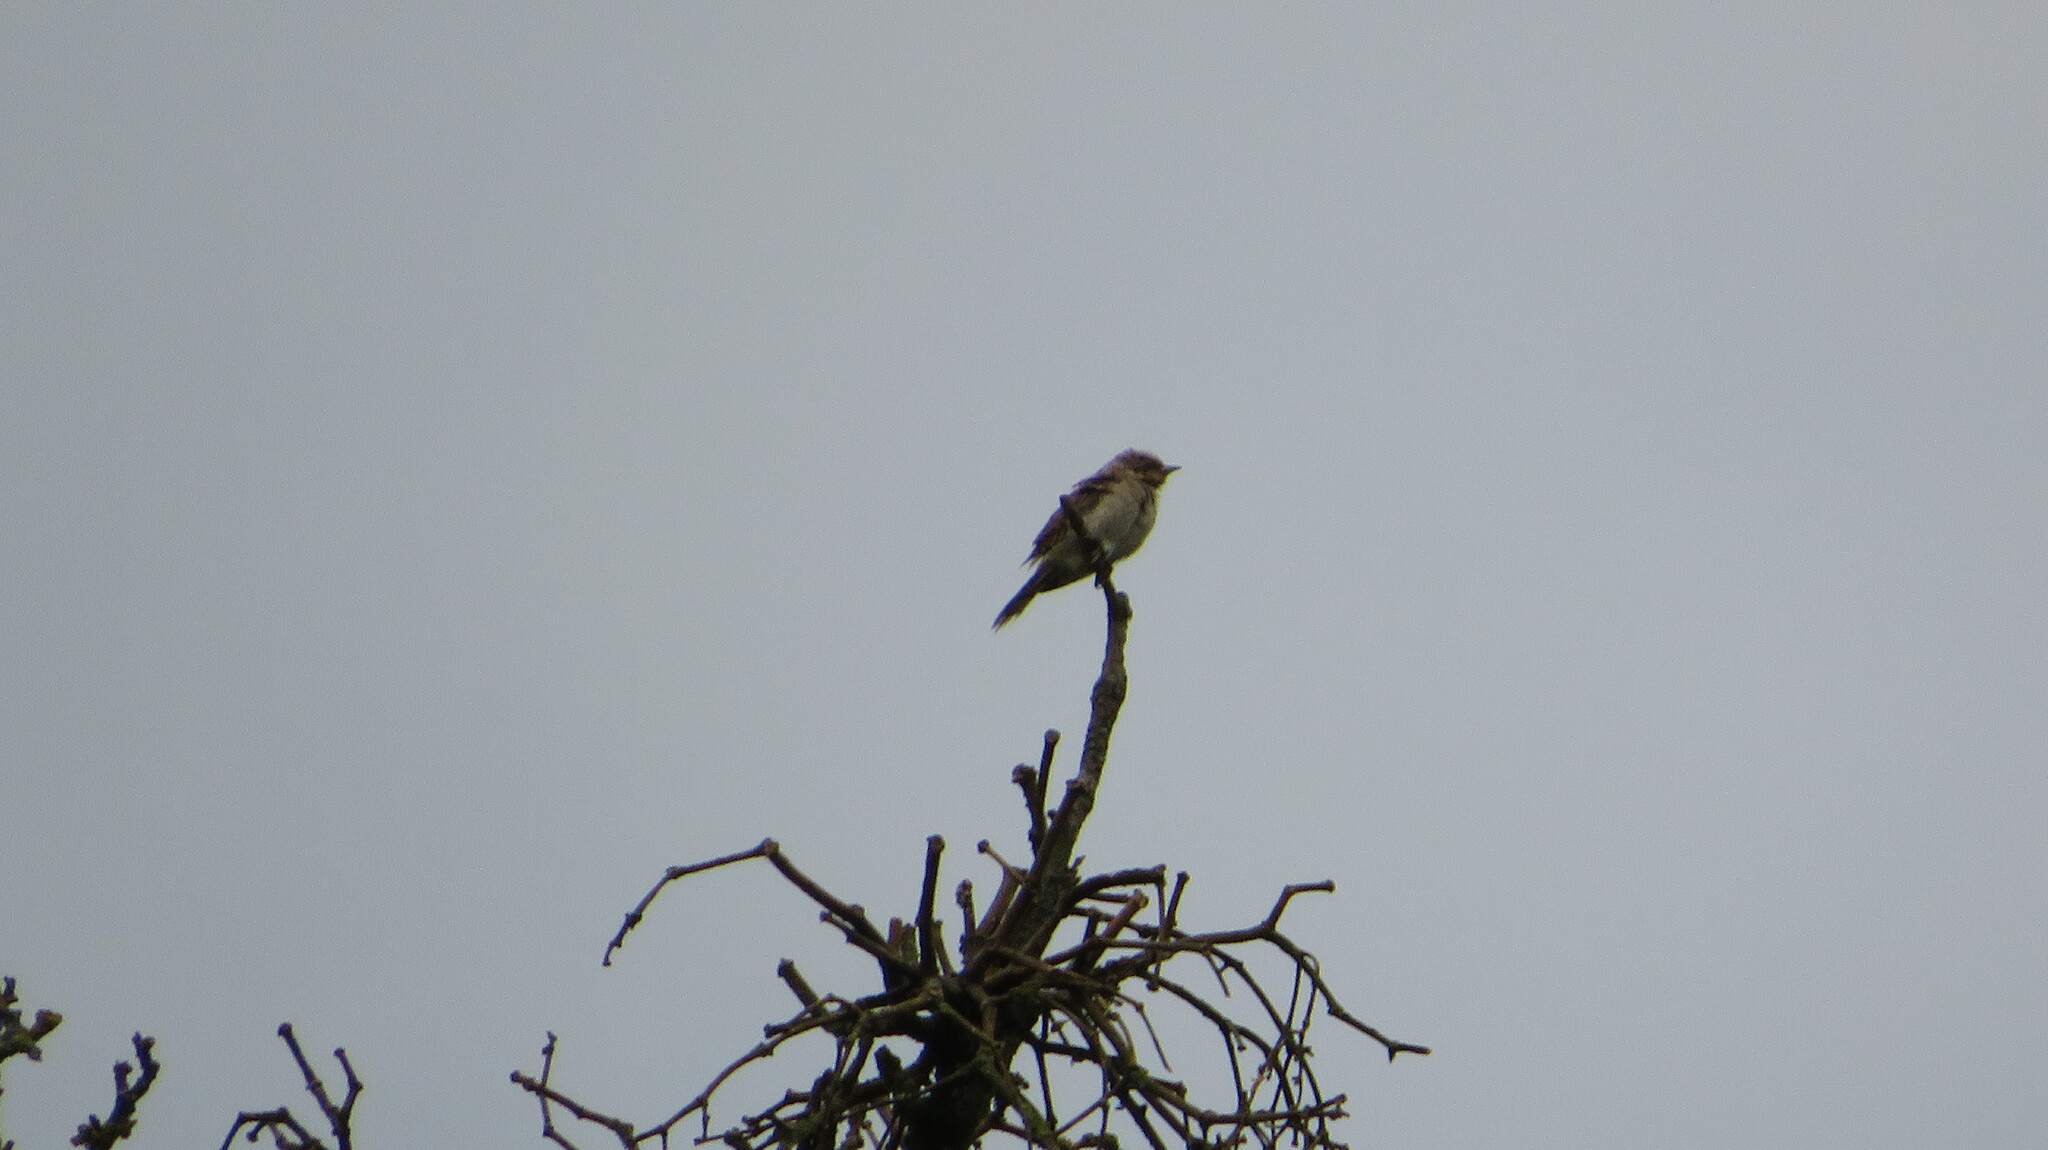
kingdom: Animalia
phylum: Chordata
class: Aves
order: Piciformes
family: Picidae
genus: Jynx
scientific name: Jynx torquilla
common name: Eurasian wryneck
